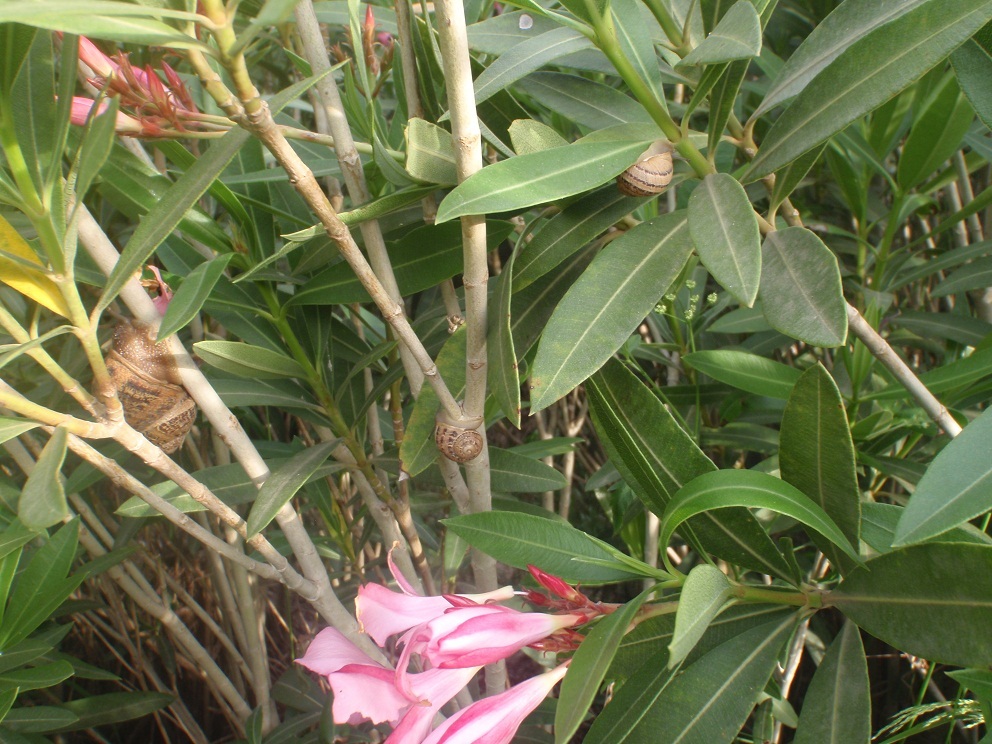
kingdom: Animalia
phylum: Mollusca
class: Gastropoda
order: Stylommatophora
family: Helicidae
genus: Cornu
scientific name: Cornu aspersum
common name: Brown garden snail
